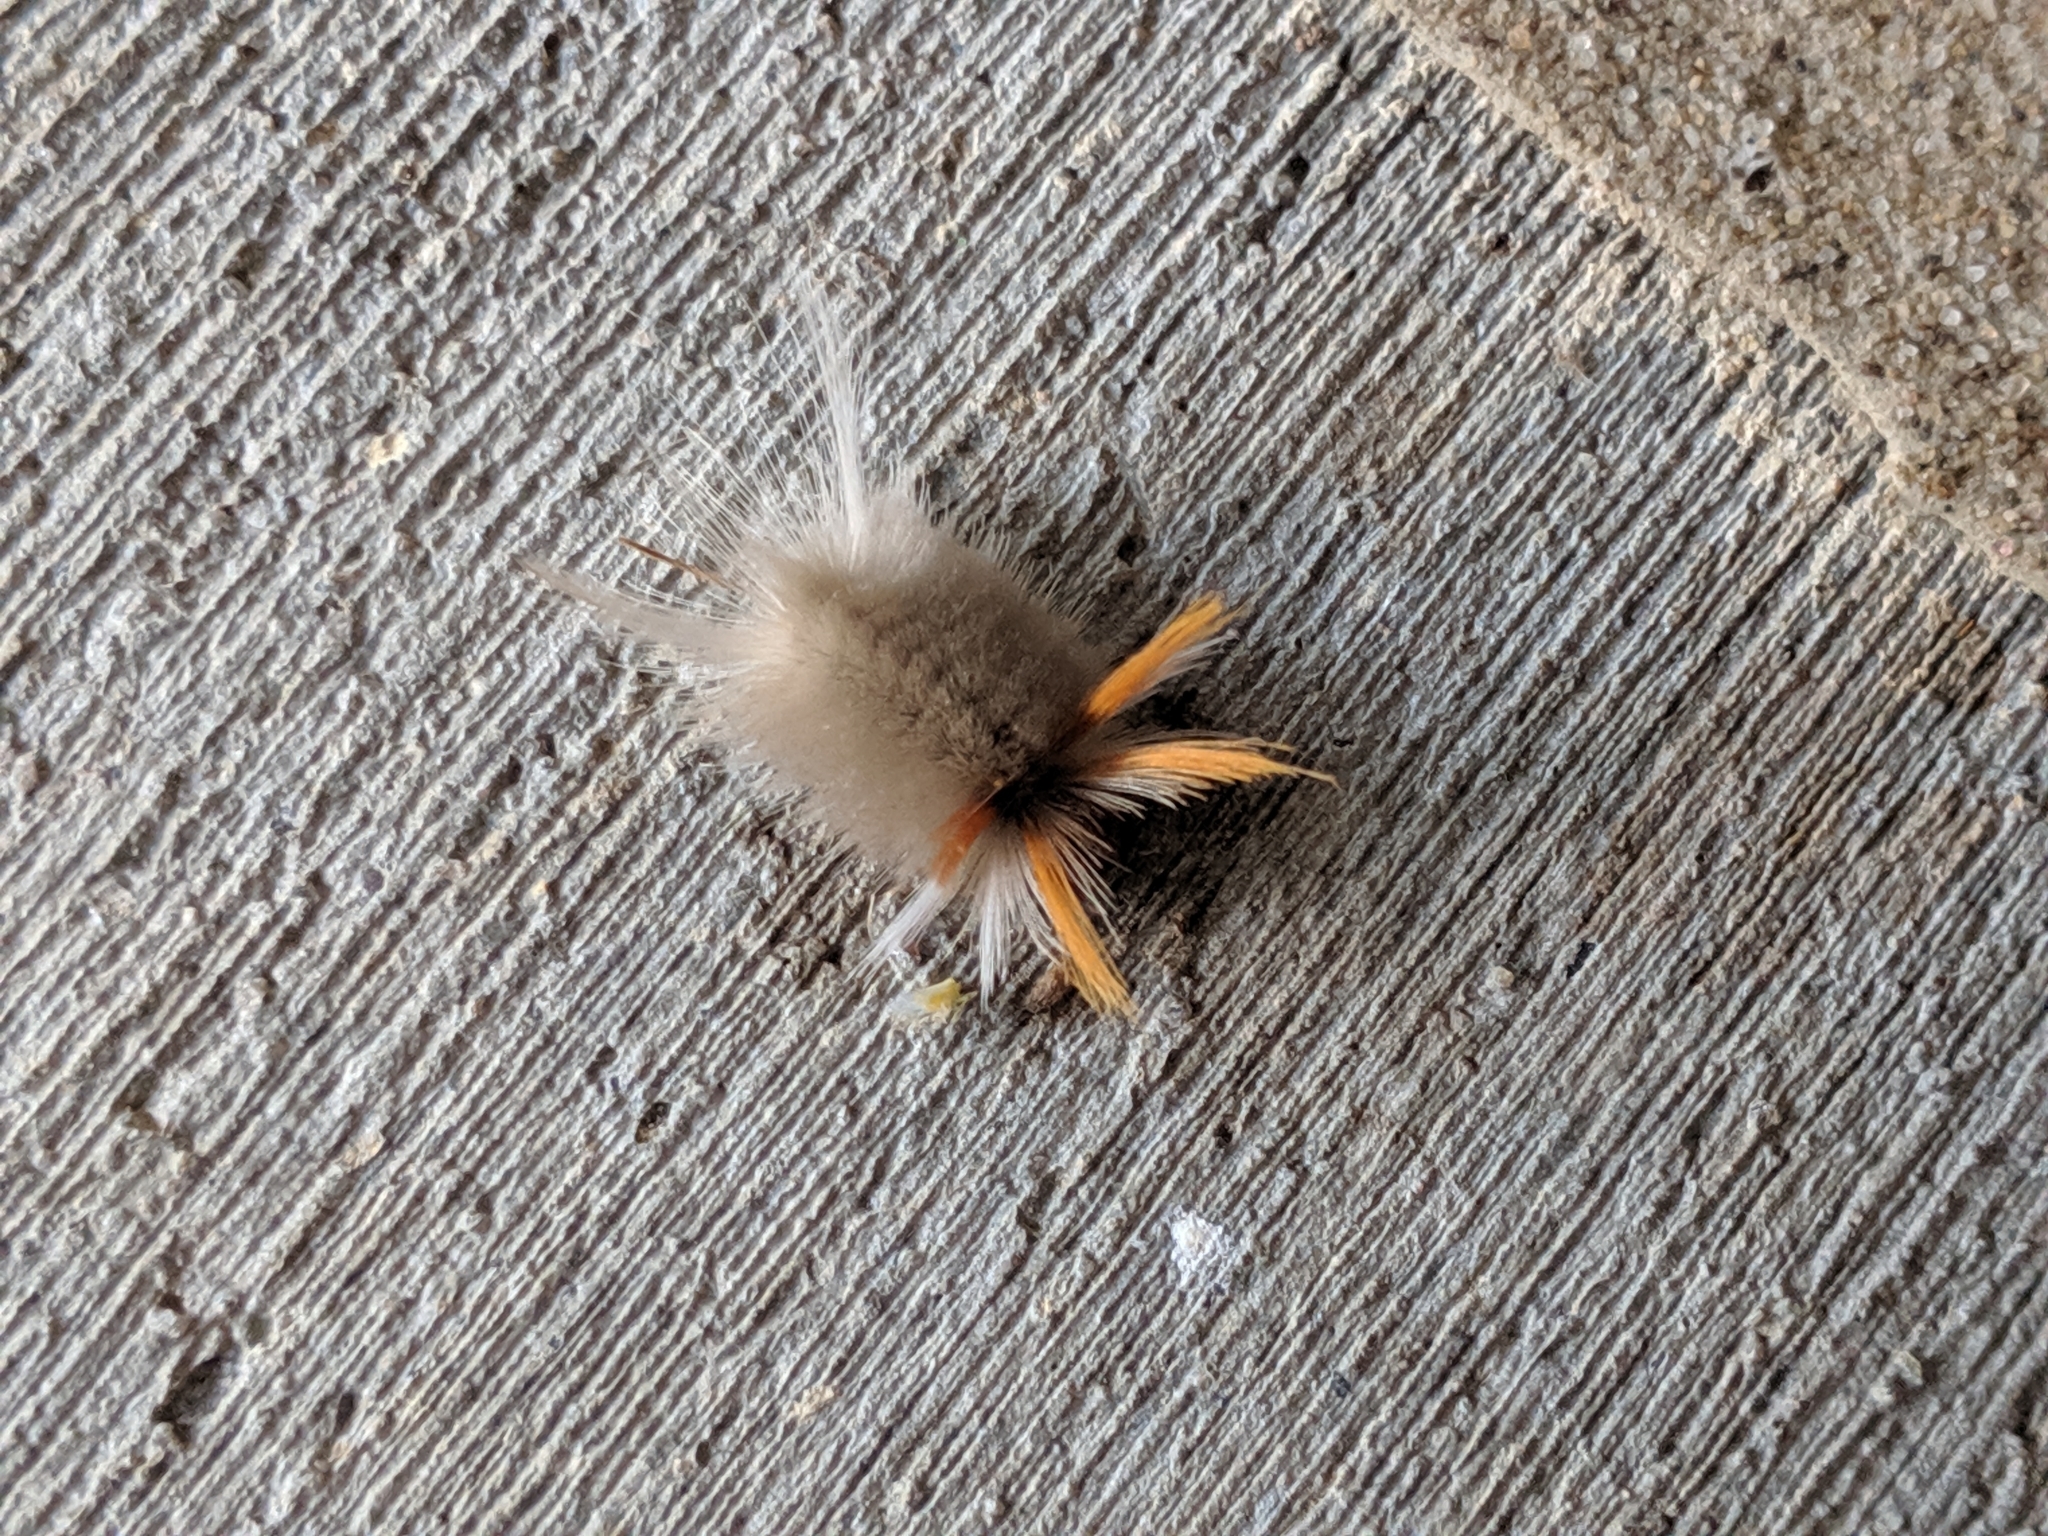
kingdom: Animalia
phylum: Arthropoda
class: Insecta
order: Lepidoptera
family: Erebidae
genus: Halysidota
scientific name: Halysidota harrisii
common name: Sycamore tussock moth
